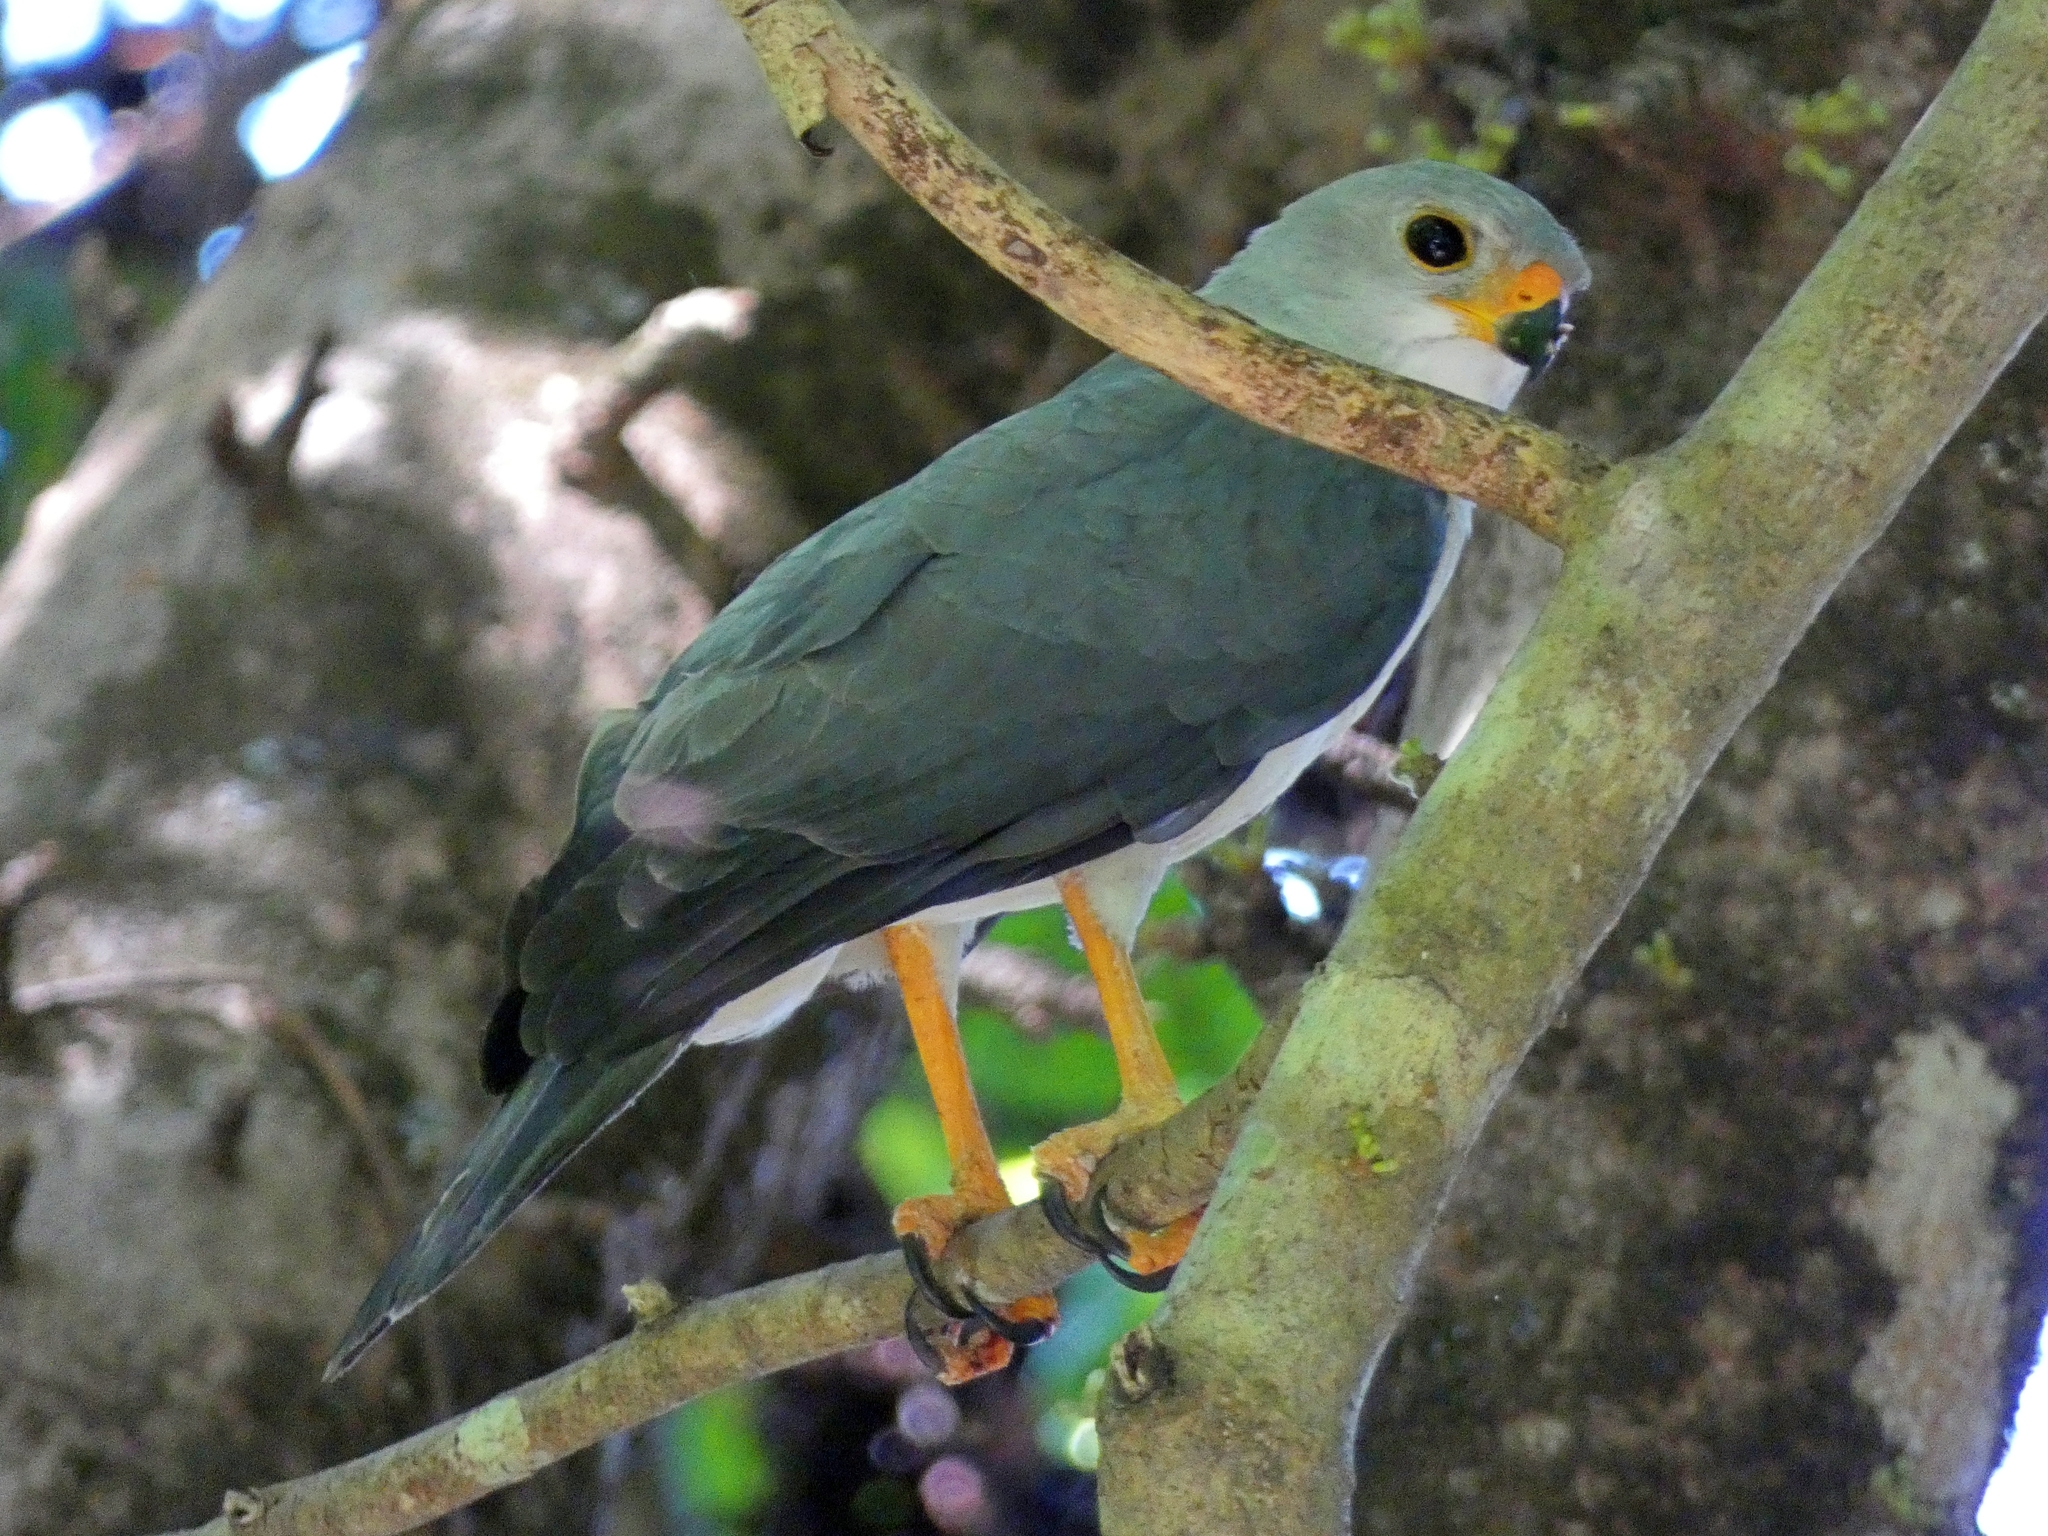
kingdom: Animalia
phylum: Chordata
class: Aves
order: Accipitriformes
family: Accipitridae
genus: Accipiter
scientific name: Accipiter novaehollandiae
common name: Grey goshawk
